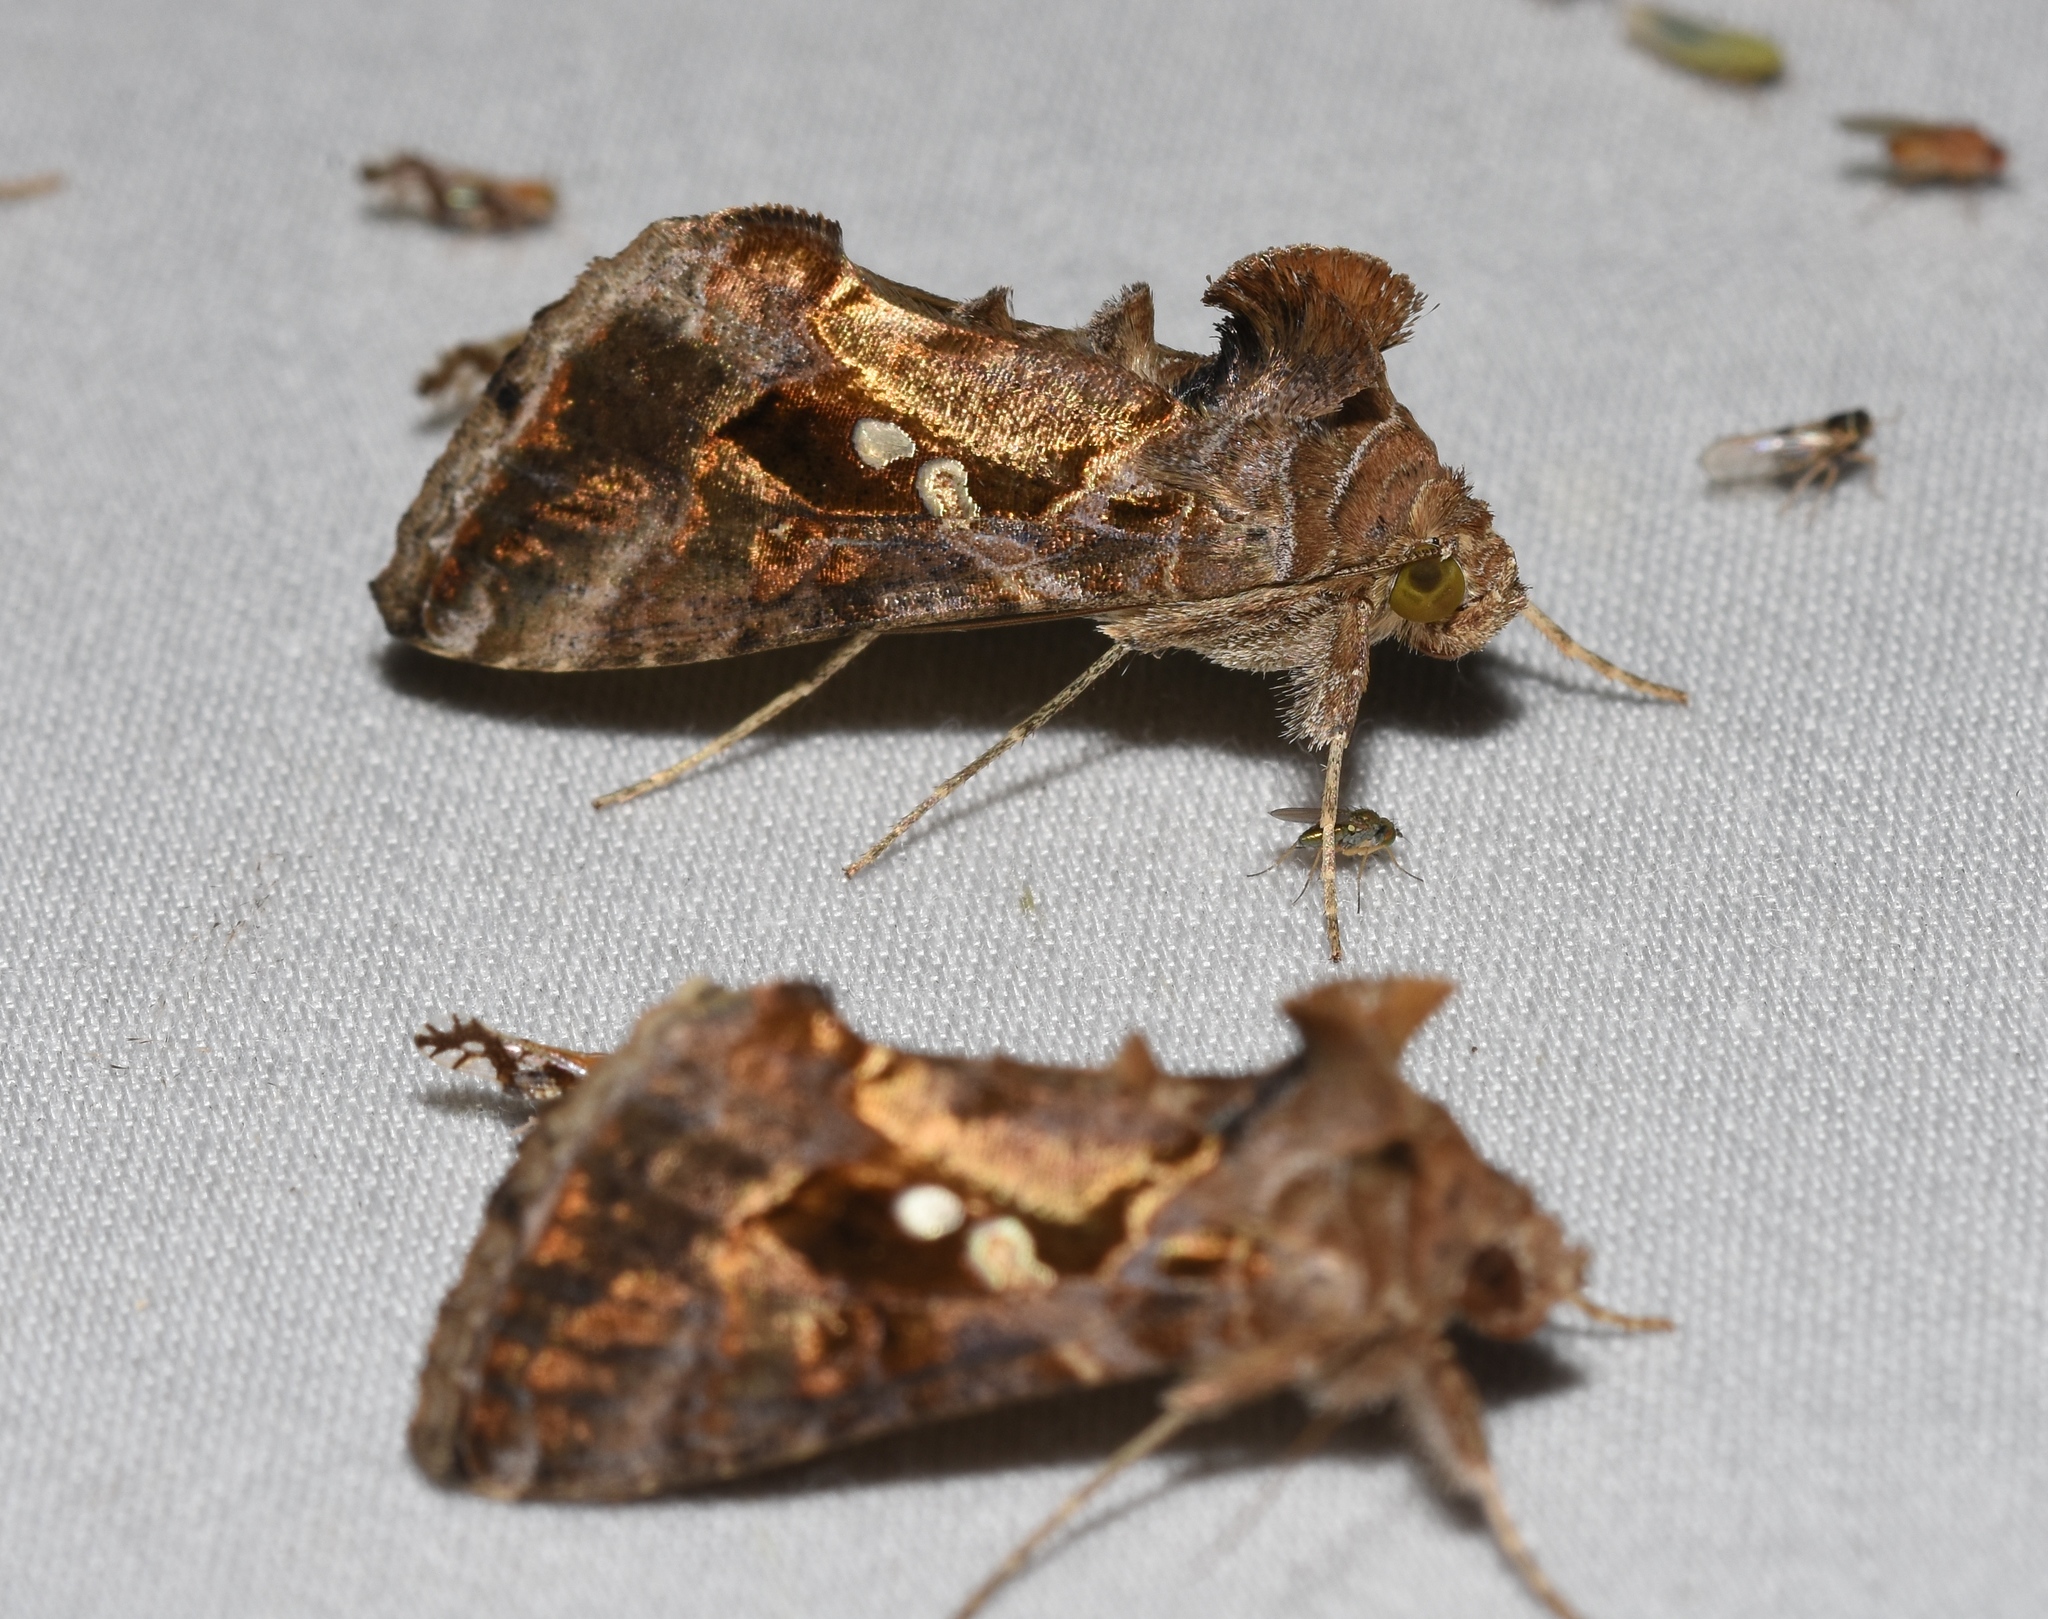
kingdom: Animalia
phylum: Arthropoda
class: Insecta
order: Lepidoptera
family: Noctuidae
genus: Chrysodeixis
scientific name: Chrysodeixis includens
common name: Cutworm moth
